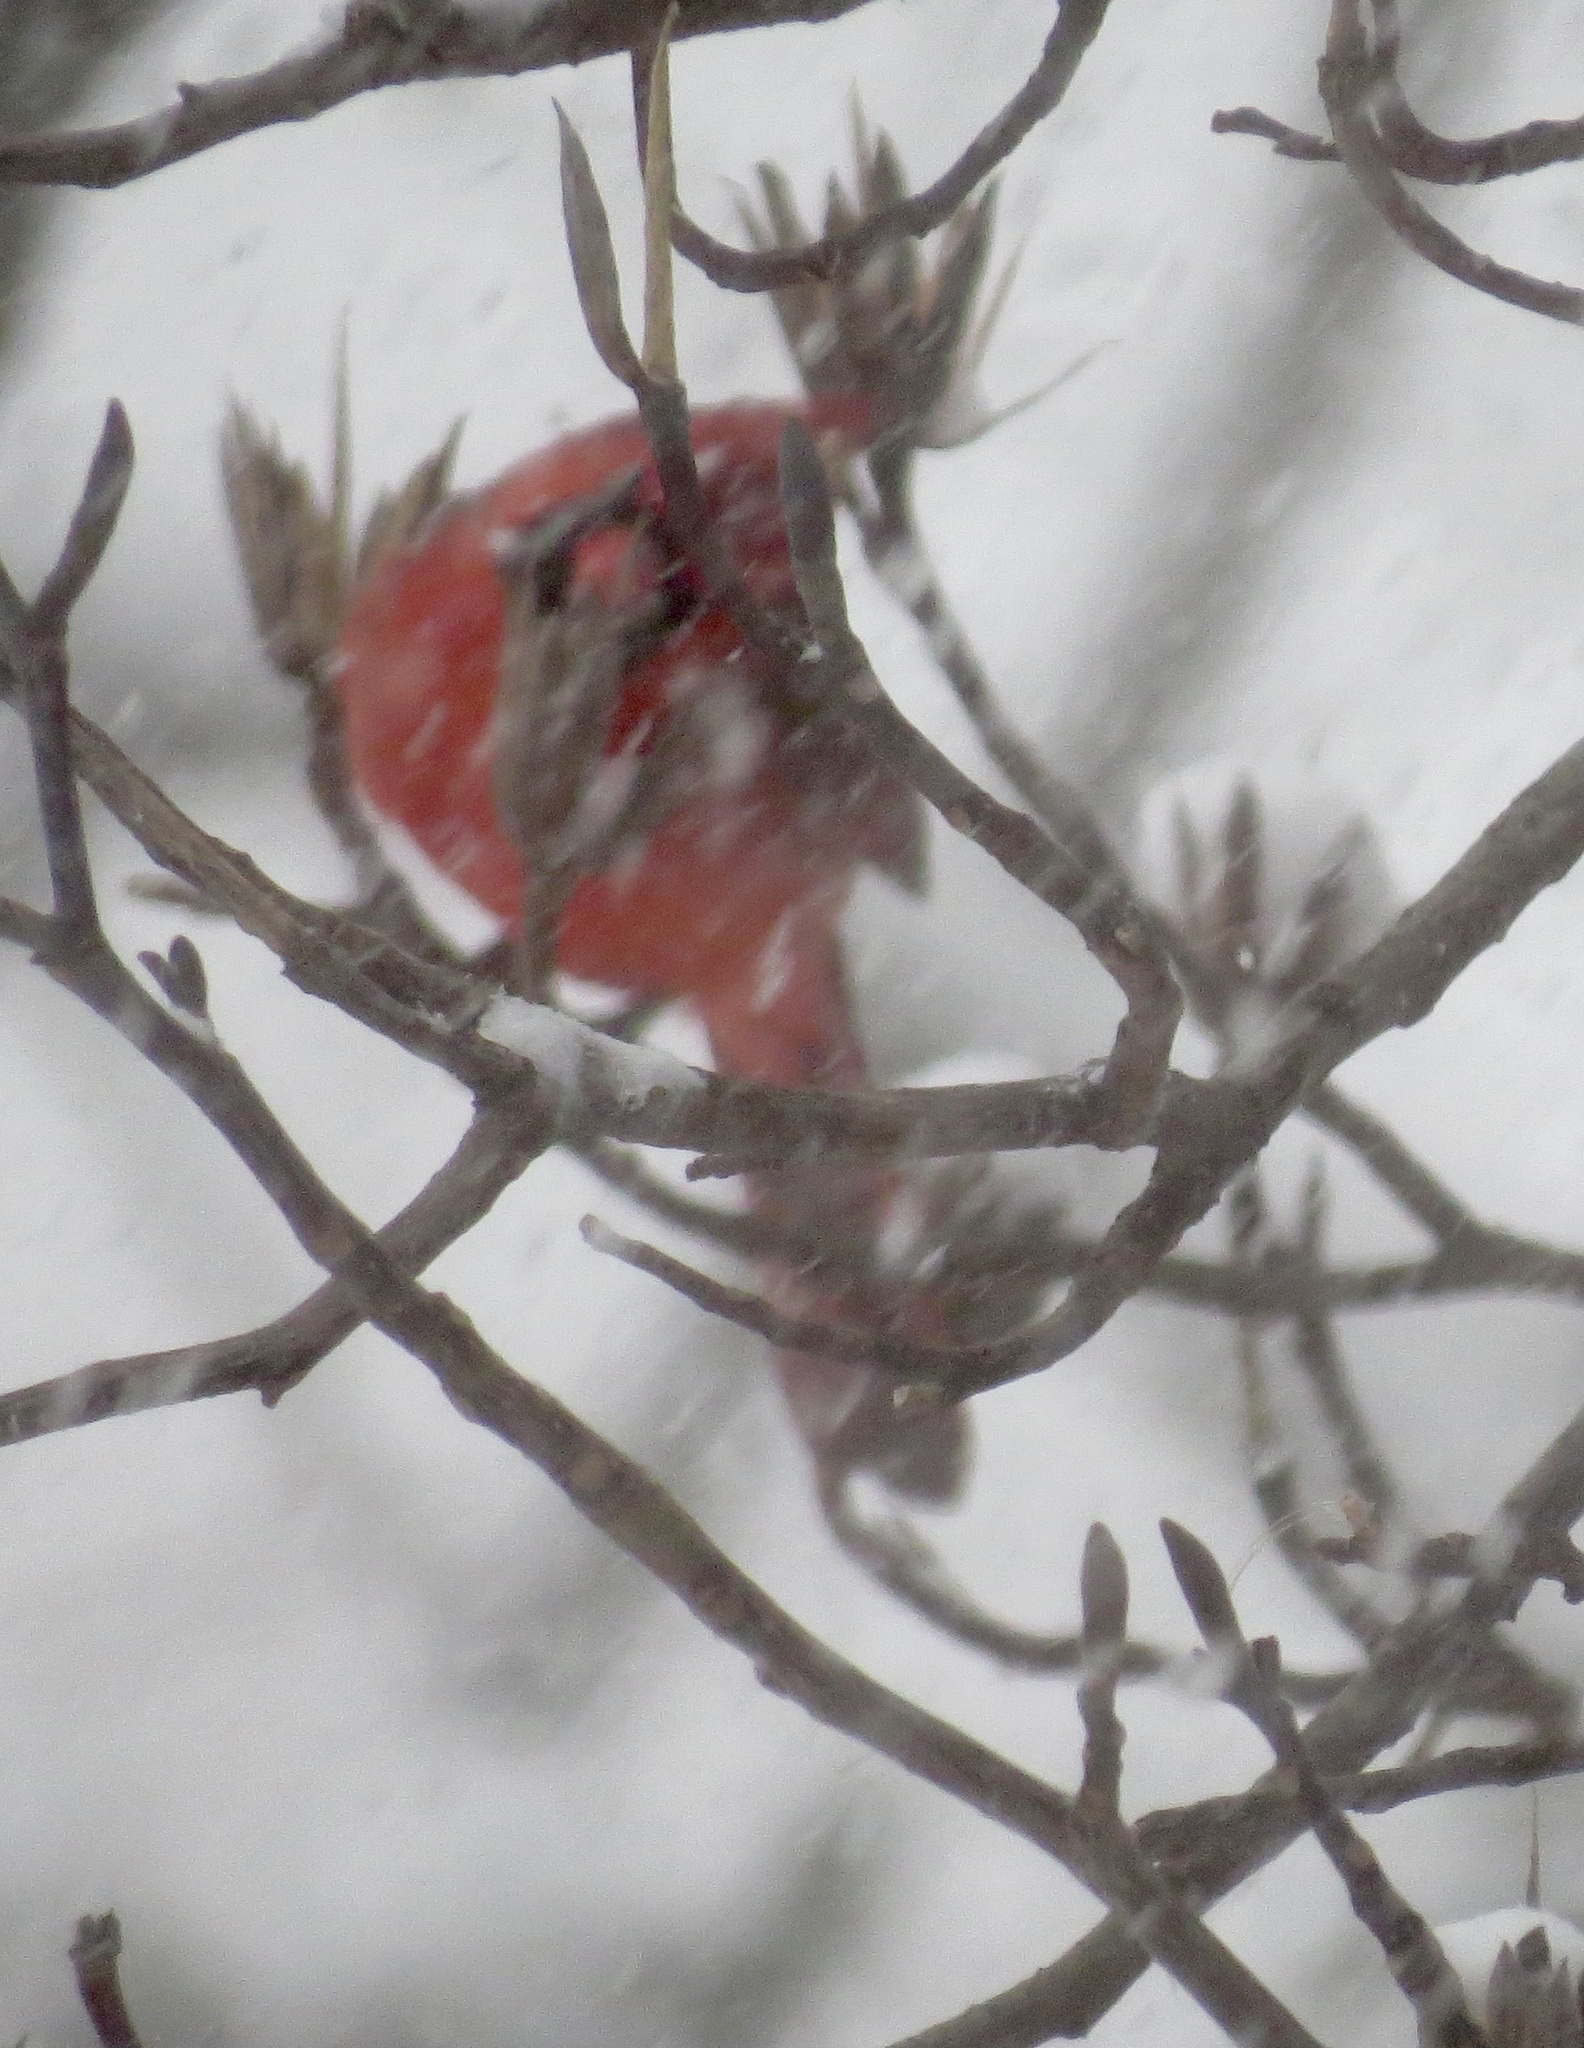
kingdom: Animalia
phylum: Chordata
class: Aves
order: Passeriformes
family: Cardinalidae
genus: Cardinalis
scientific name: Cardinalis cardinalis
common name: Northern cardinal
